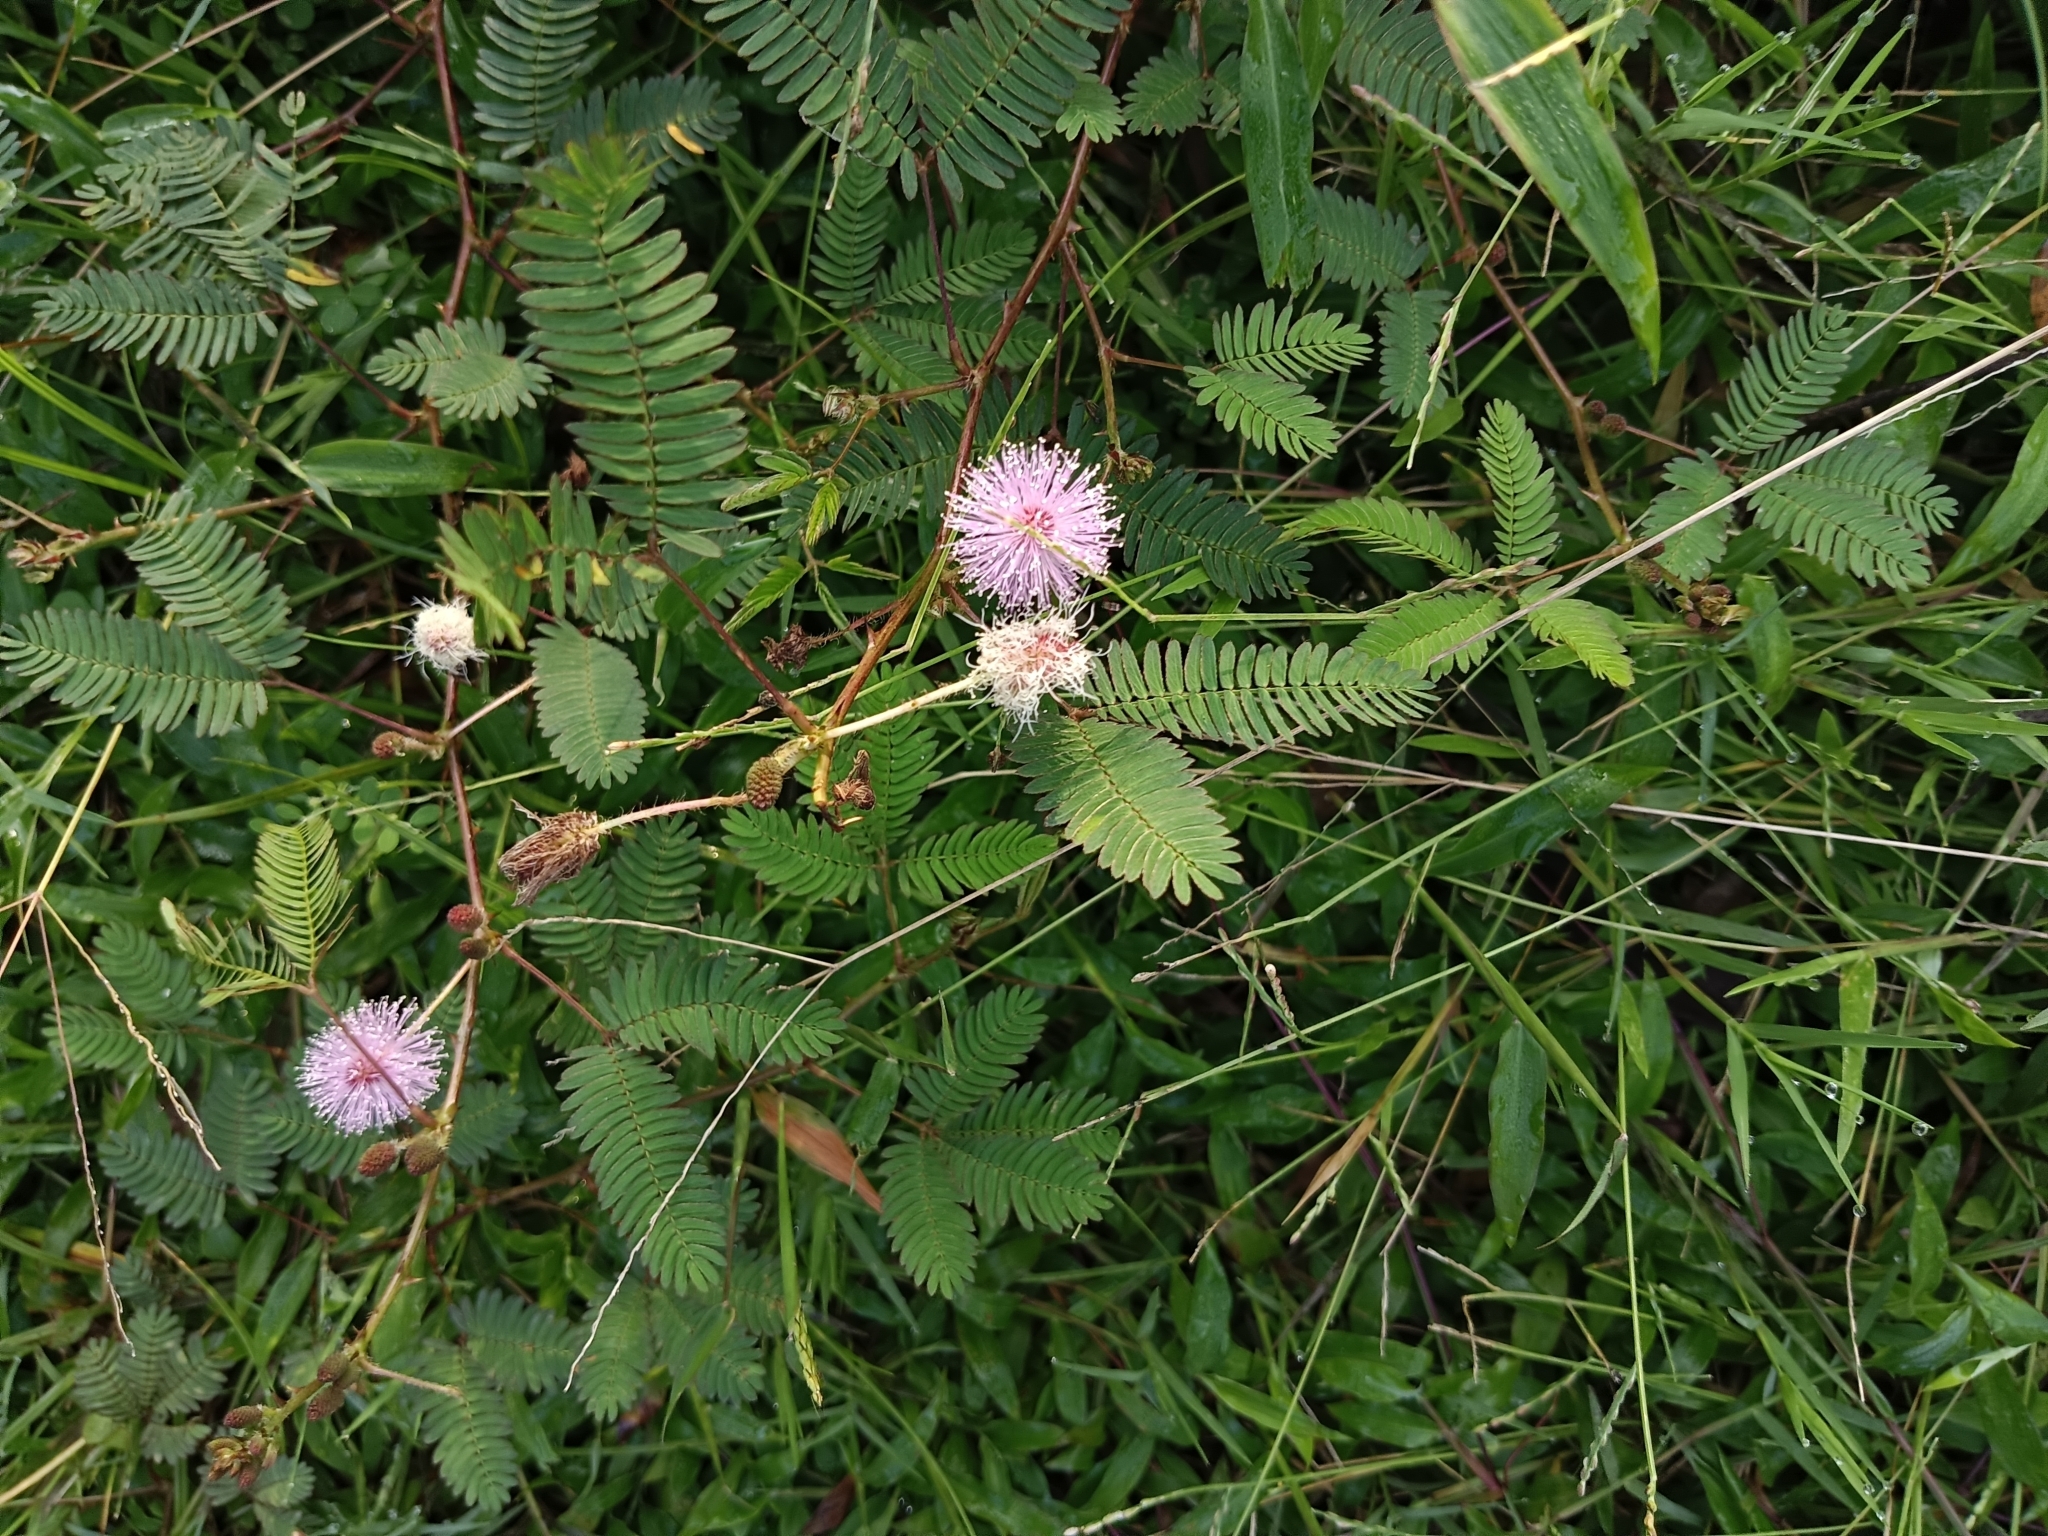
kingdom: Plantae
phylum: Tracheophyta
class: Magnoliopsida
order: Fabales
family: Fabaceae
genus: Mimosa
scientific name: Mimosa pudica
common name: Sensitive plant
